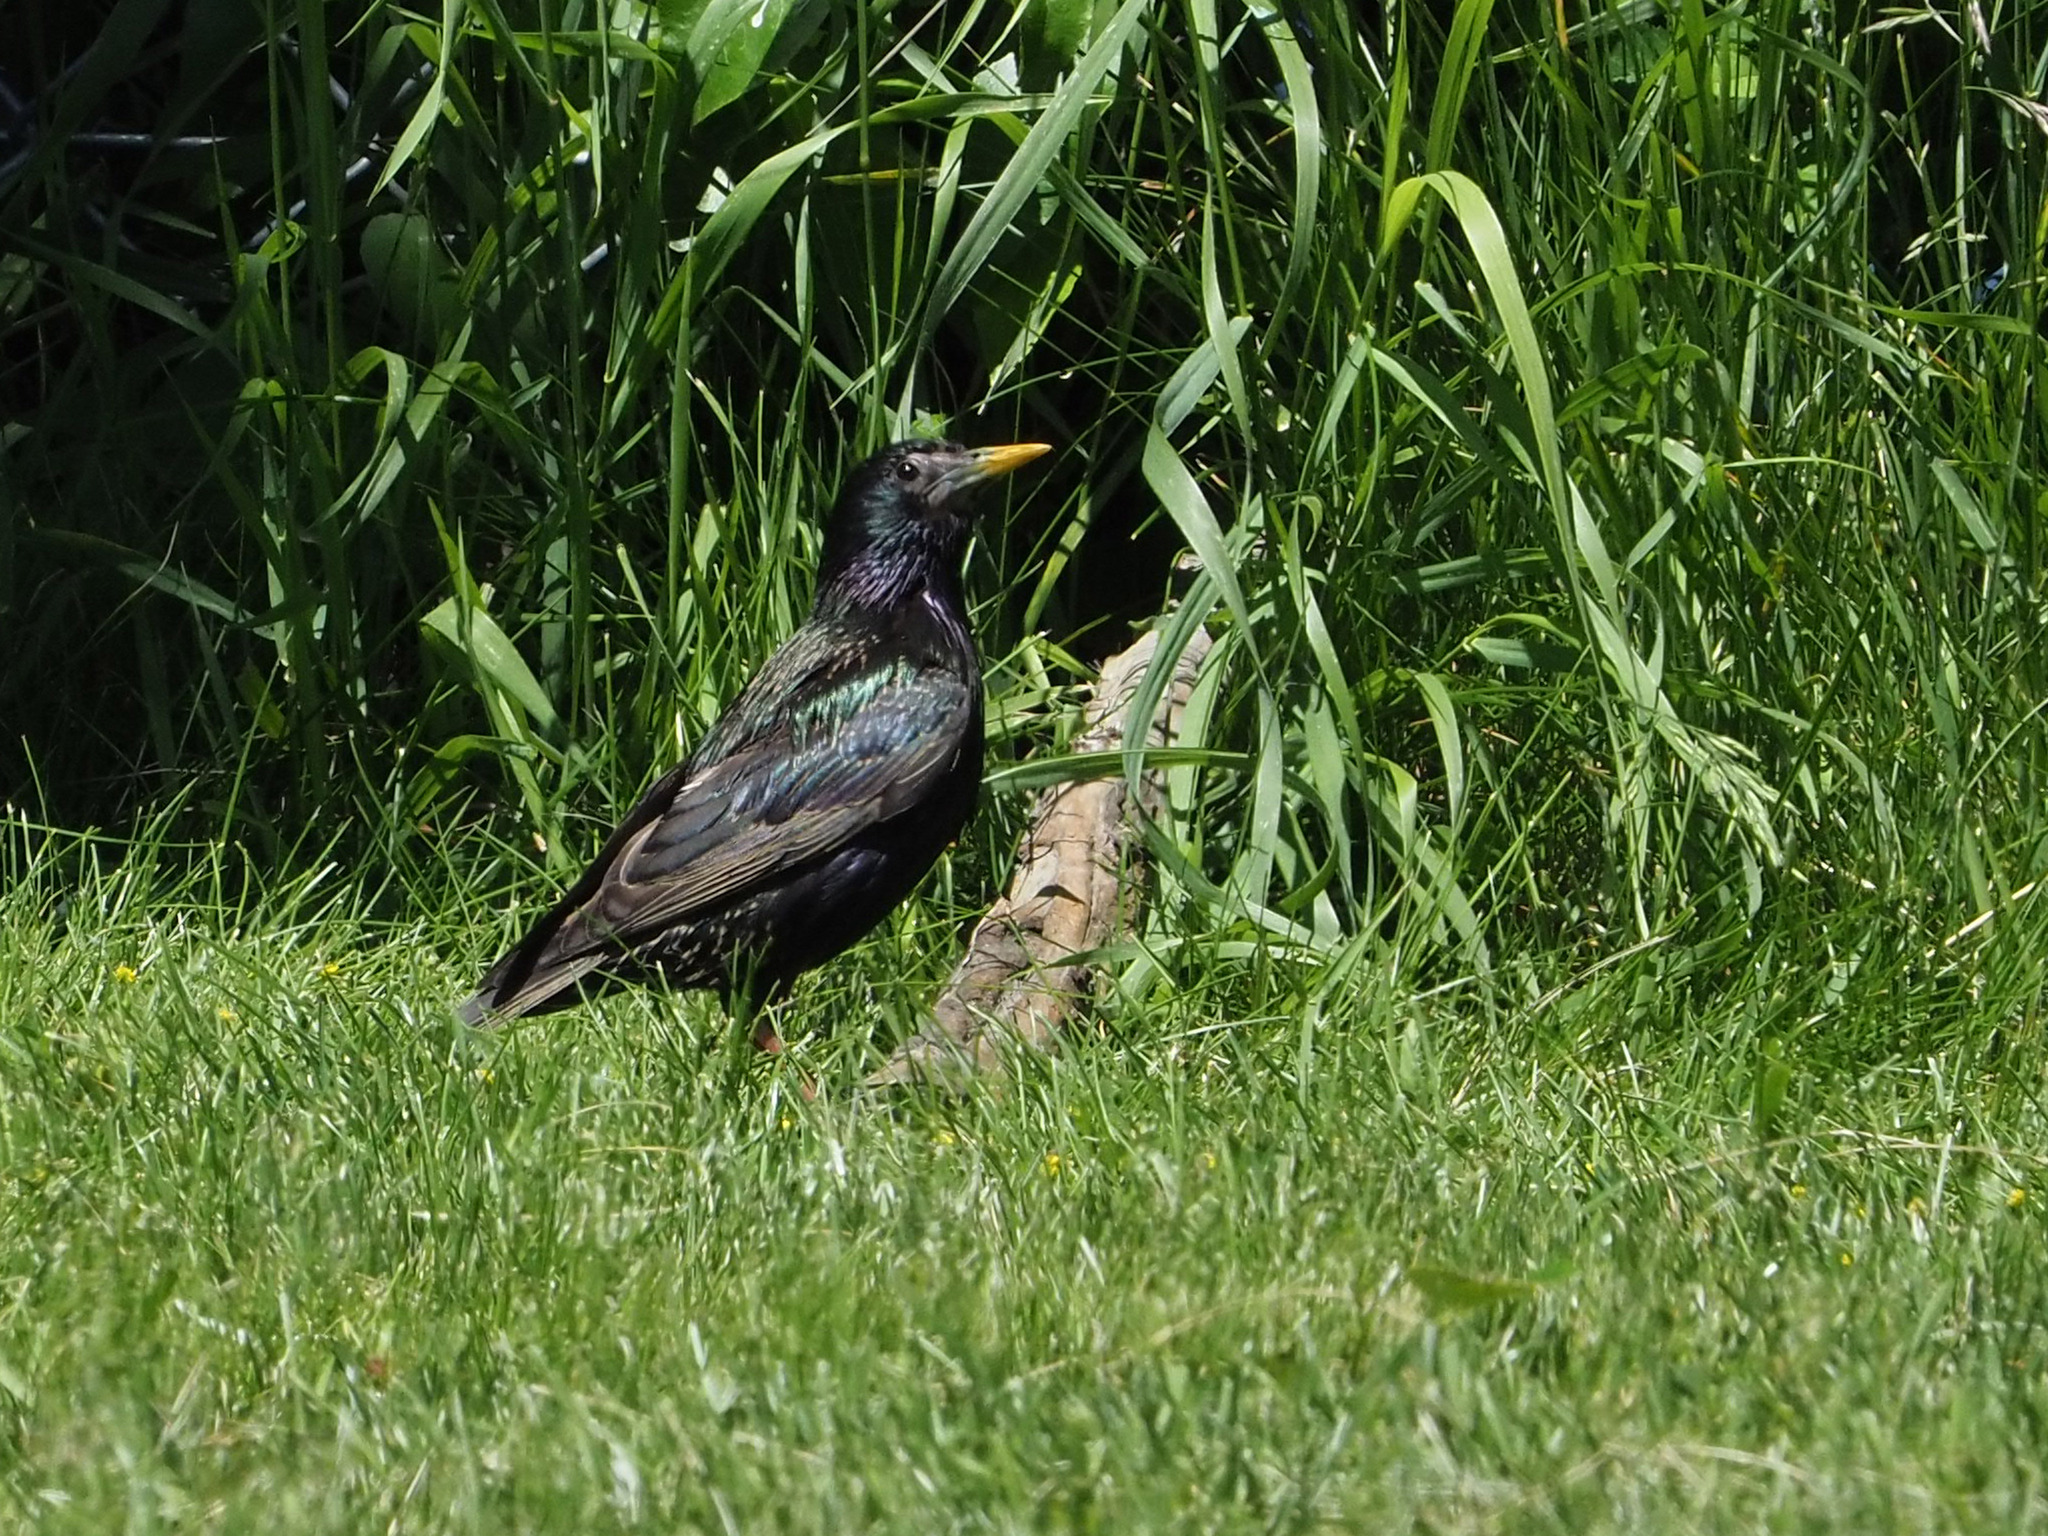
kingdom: Animalia
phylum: Chordata
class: Aves
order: Passeriformes
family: Sturnidae
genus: Sturnus
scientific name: Sturnus vulgaris
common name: Common starling
